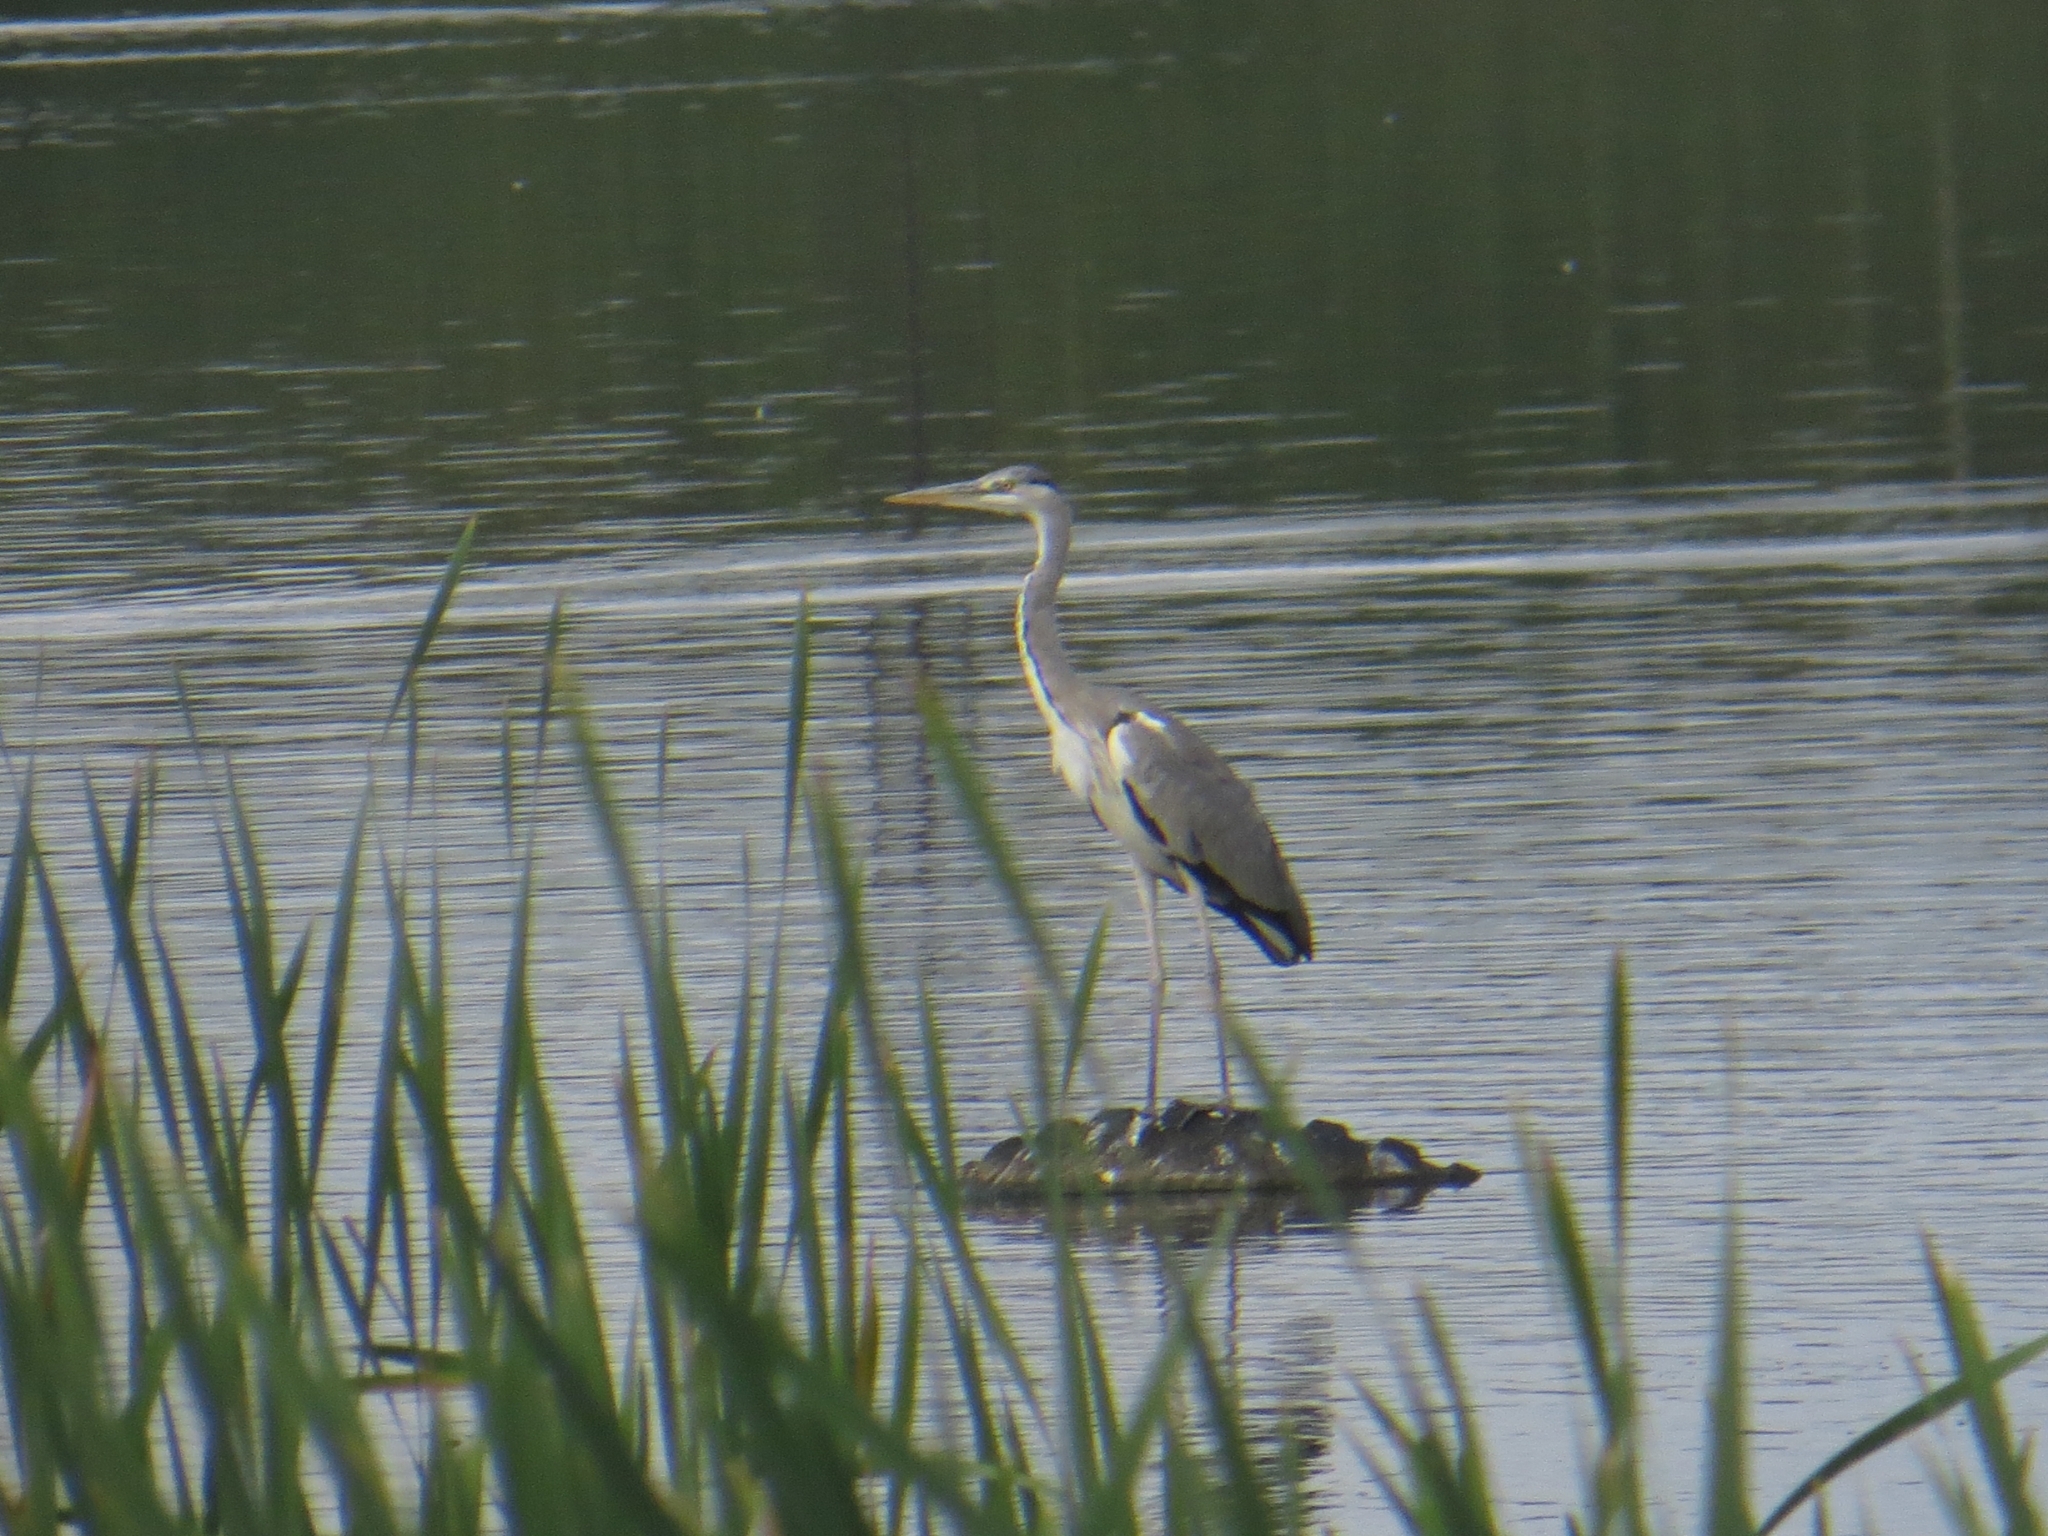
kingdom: Animalia
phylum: Chordata
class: Aves
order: Pelecaniformes
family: Ardeidae
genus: Ardea
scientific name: Ardea cinerea
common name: Grey heron
